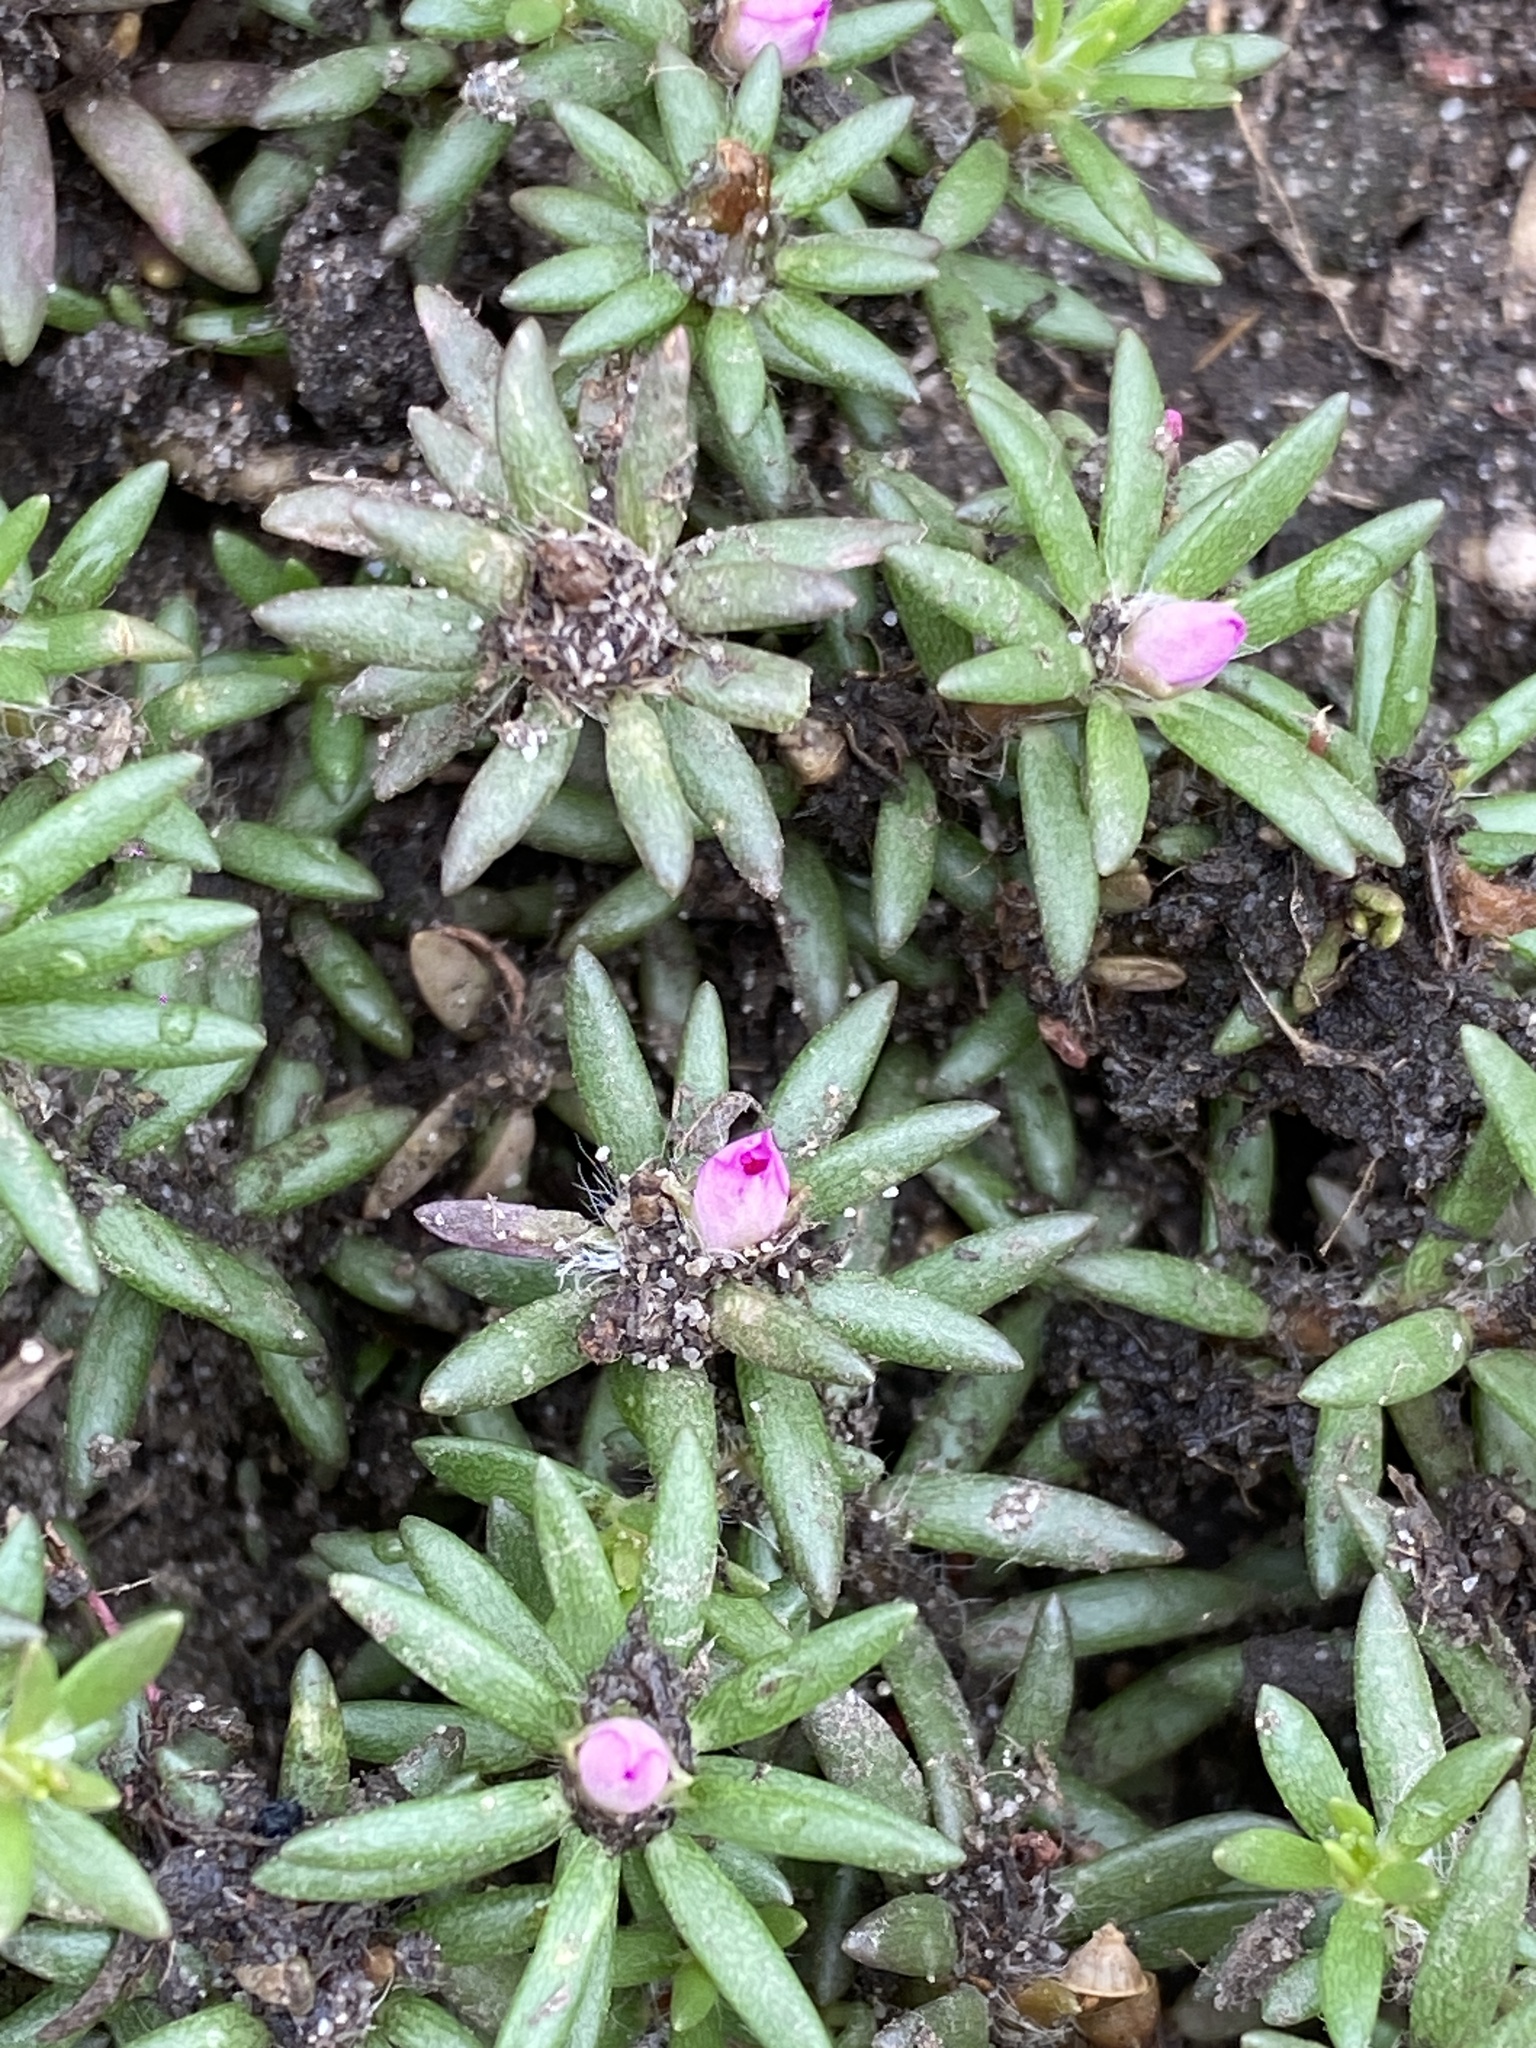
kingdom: Plantae
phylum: Tracheophyta
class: Magnoliopsida
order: Caryophyllales
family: Portulacaceae
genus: Portulaca
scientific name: Portulaca pilosa
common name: Kiss me quick
